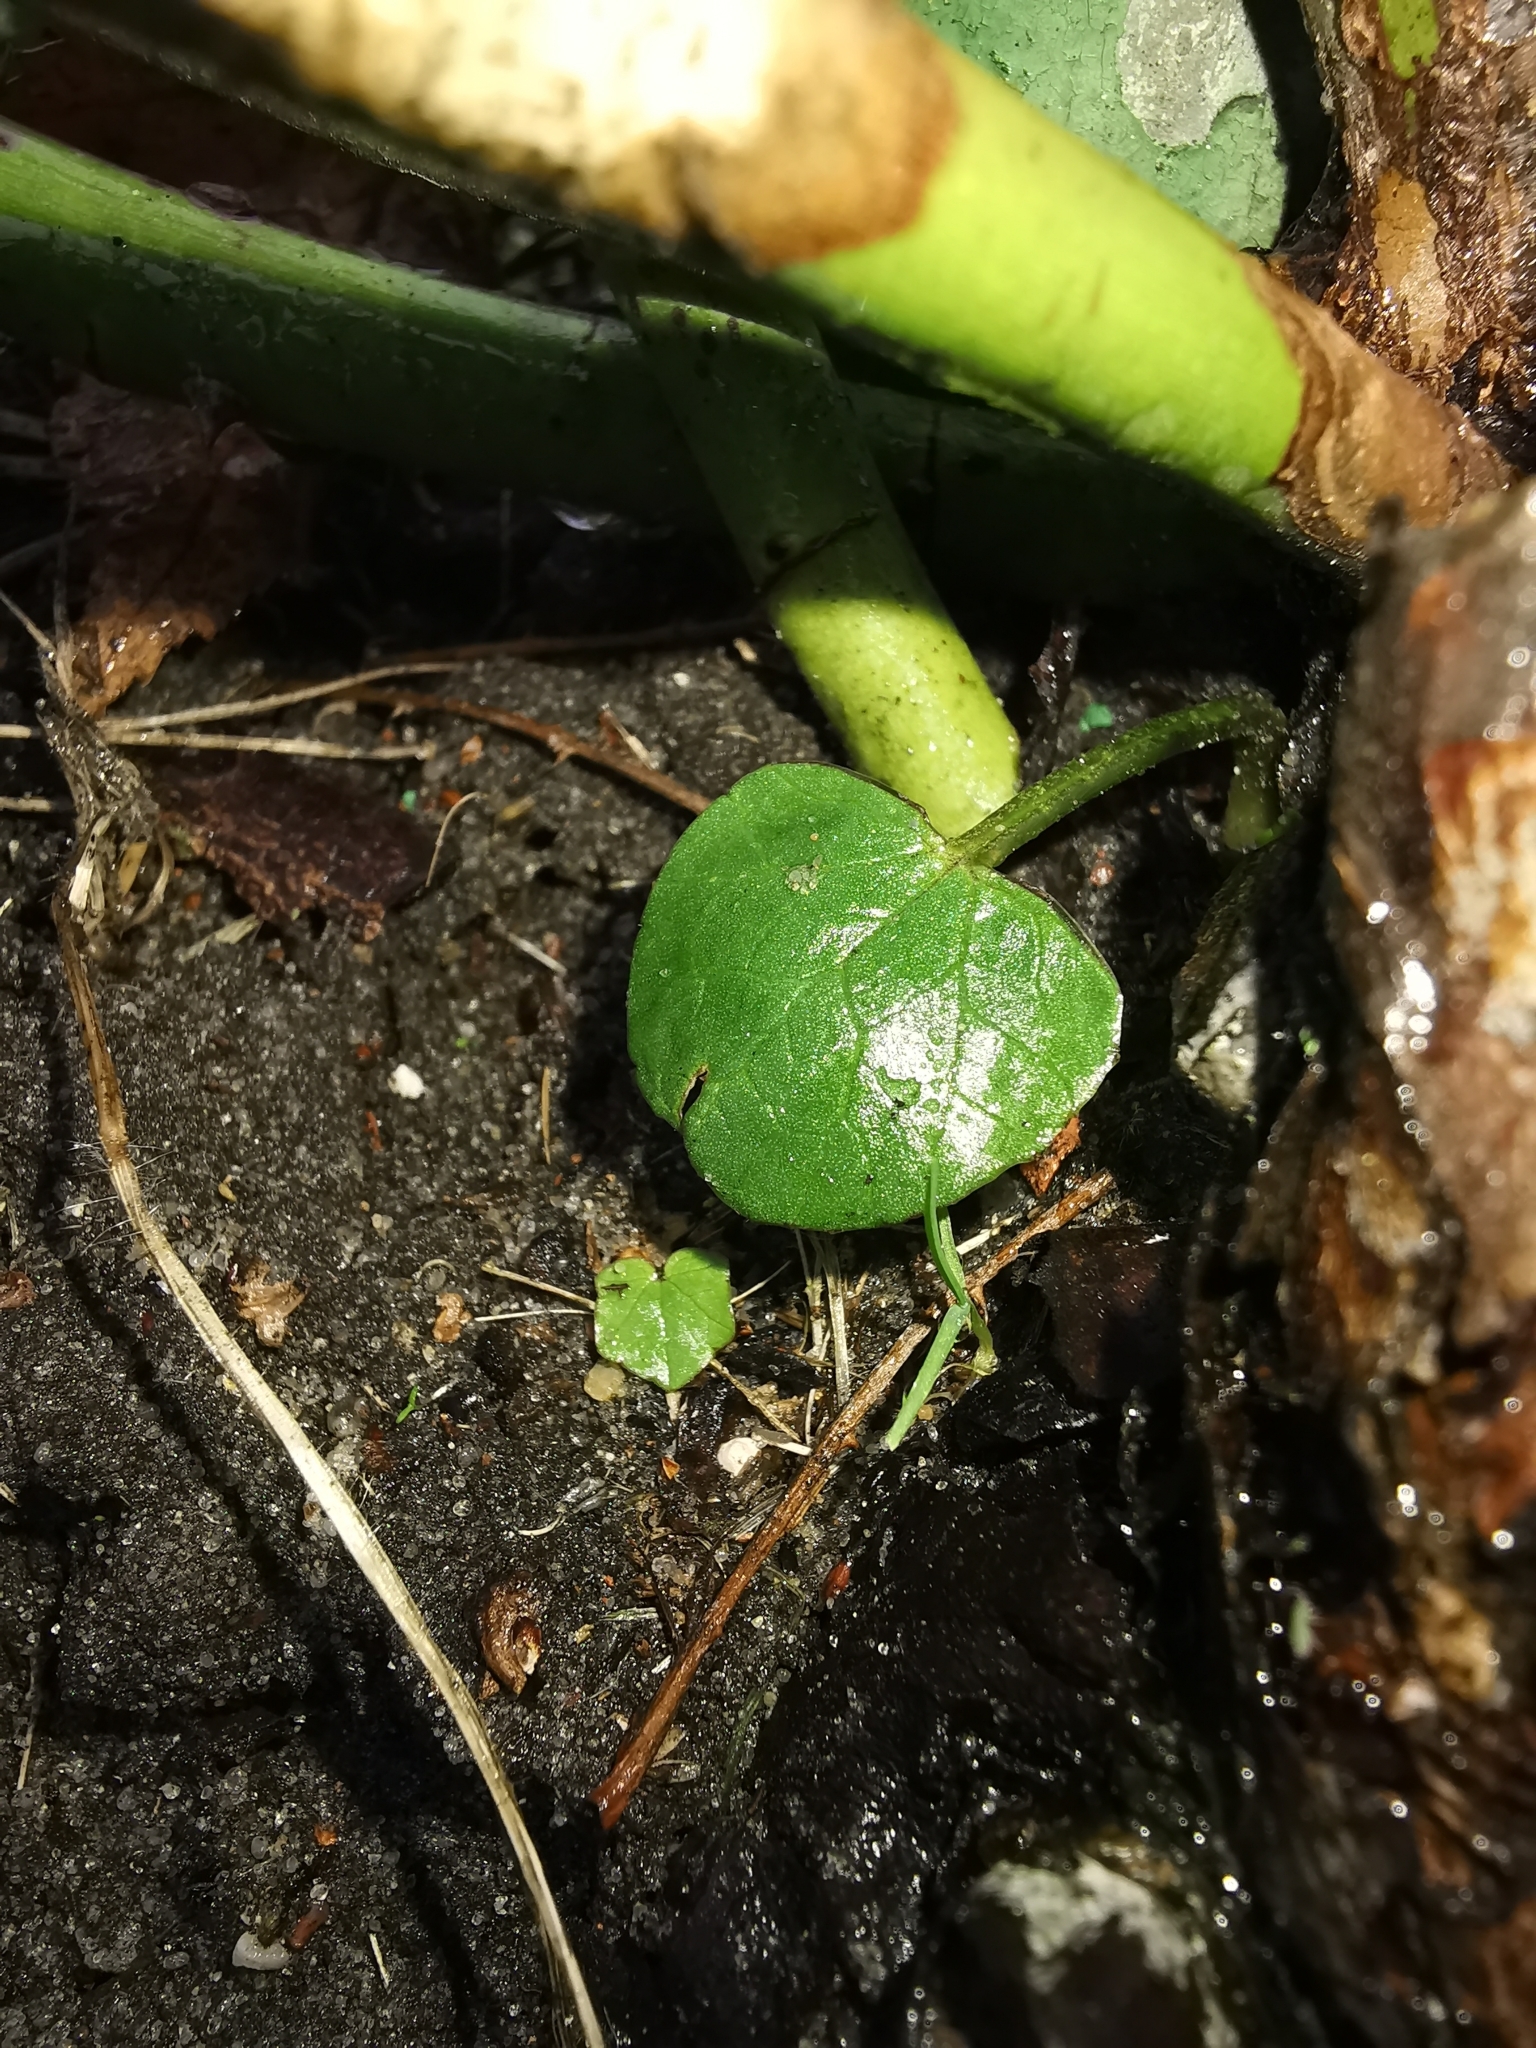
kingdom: Plantae
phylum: Tracheophyta
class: Magnoliopsida
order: Ranunculales
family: Ranunculaceae
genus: Ficaria
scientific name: Ficaria verna
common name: Lesser celandine
